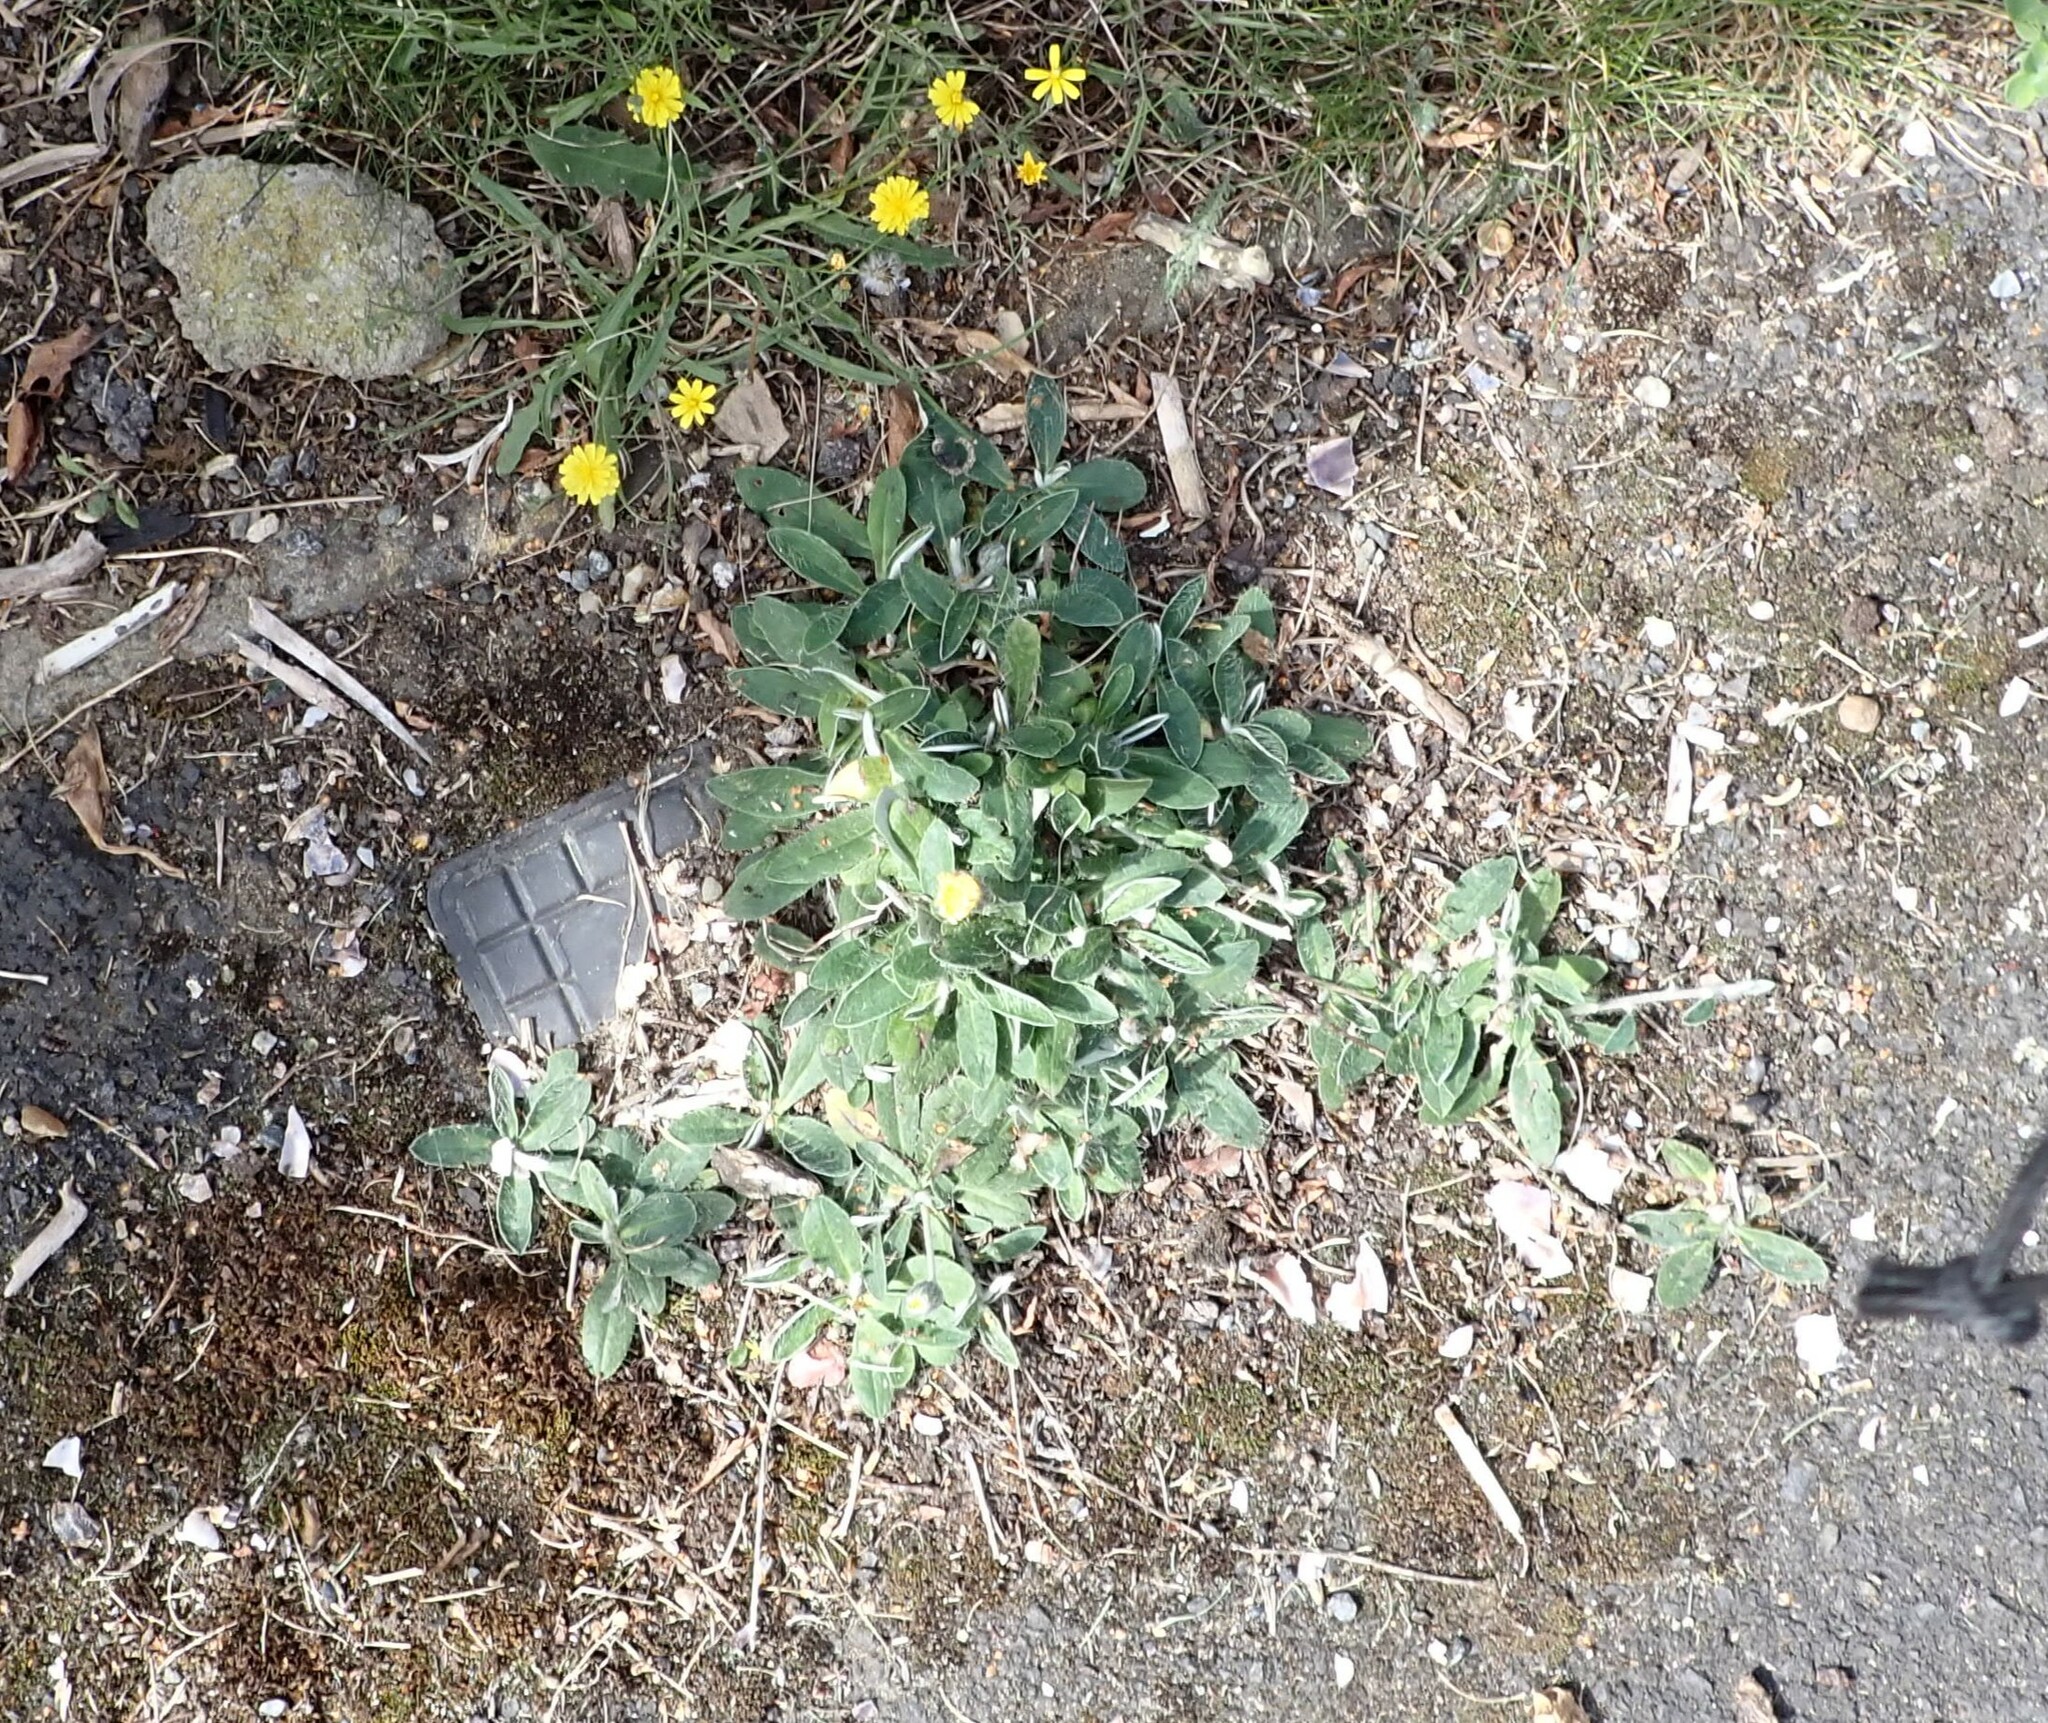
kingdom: Plantae
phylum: Tracheophyta
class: Magnoliopsida
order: Asterales
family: Asteraceae
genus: Pilosella
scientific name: Pilosella officinarum
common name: Mouse-ear hawkweed
